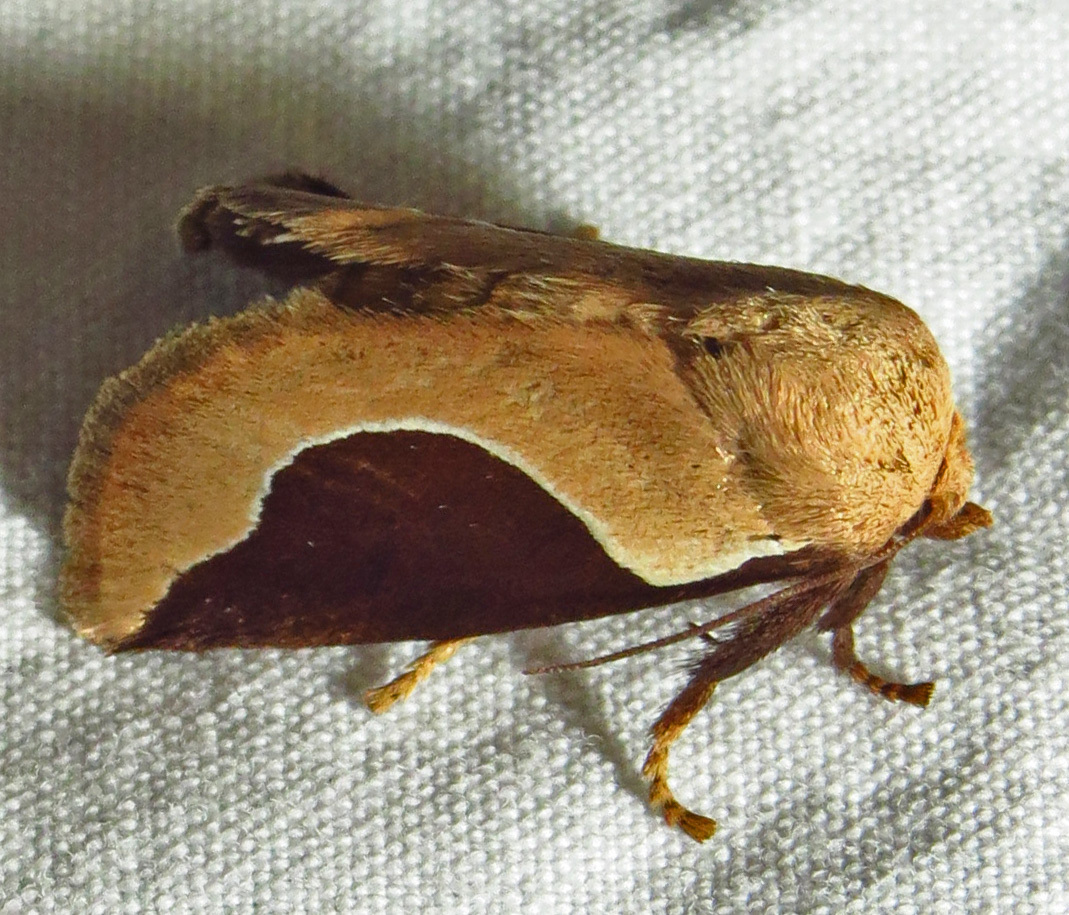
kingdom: Animalia
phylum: Arthropoda
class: Insecta
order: Lepidoptera
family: Limacodidae
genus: Prolimacodes
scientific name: Prolimacodes badia
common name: Skiff moth
